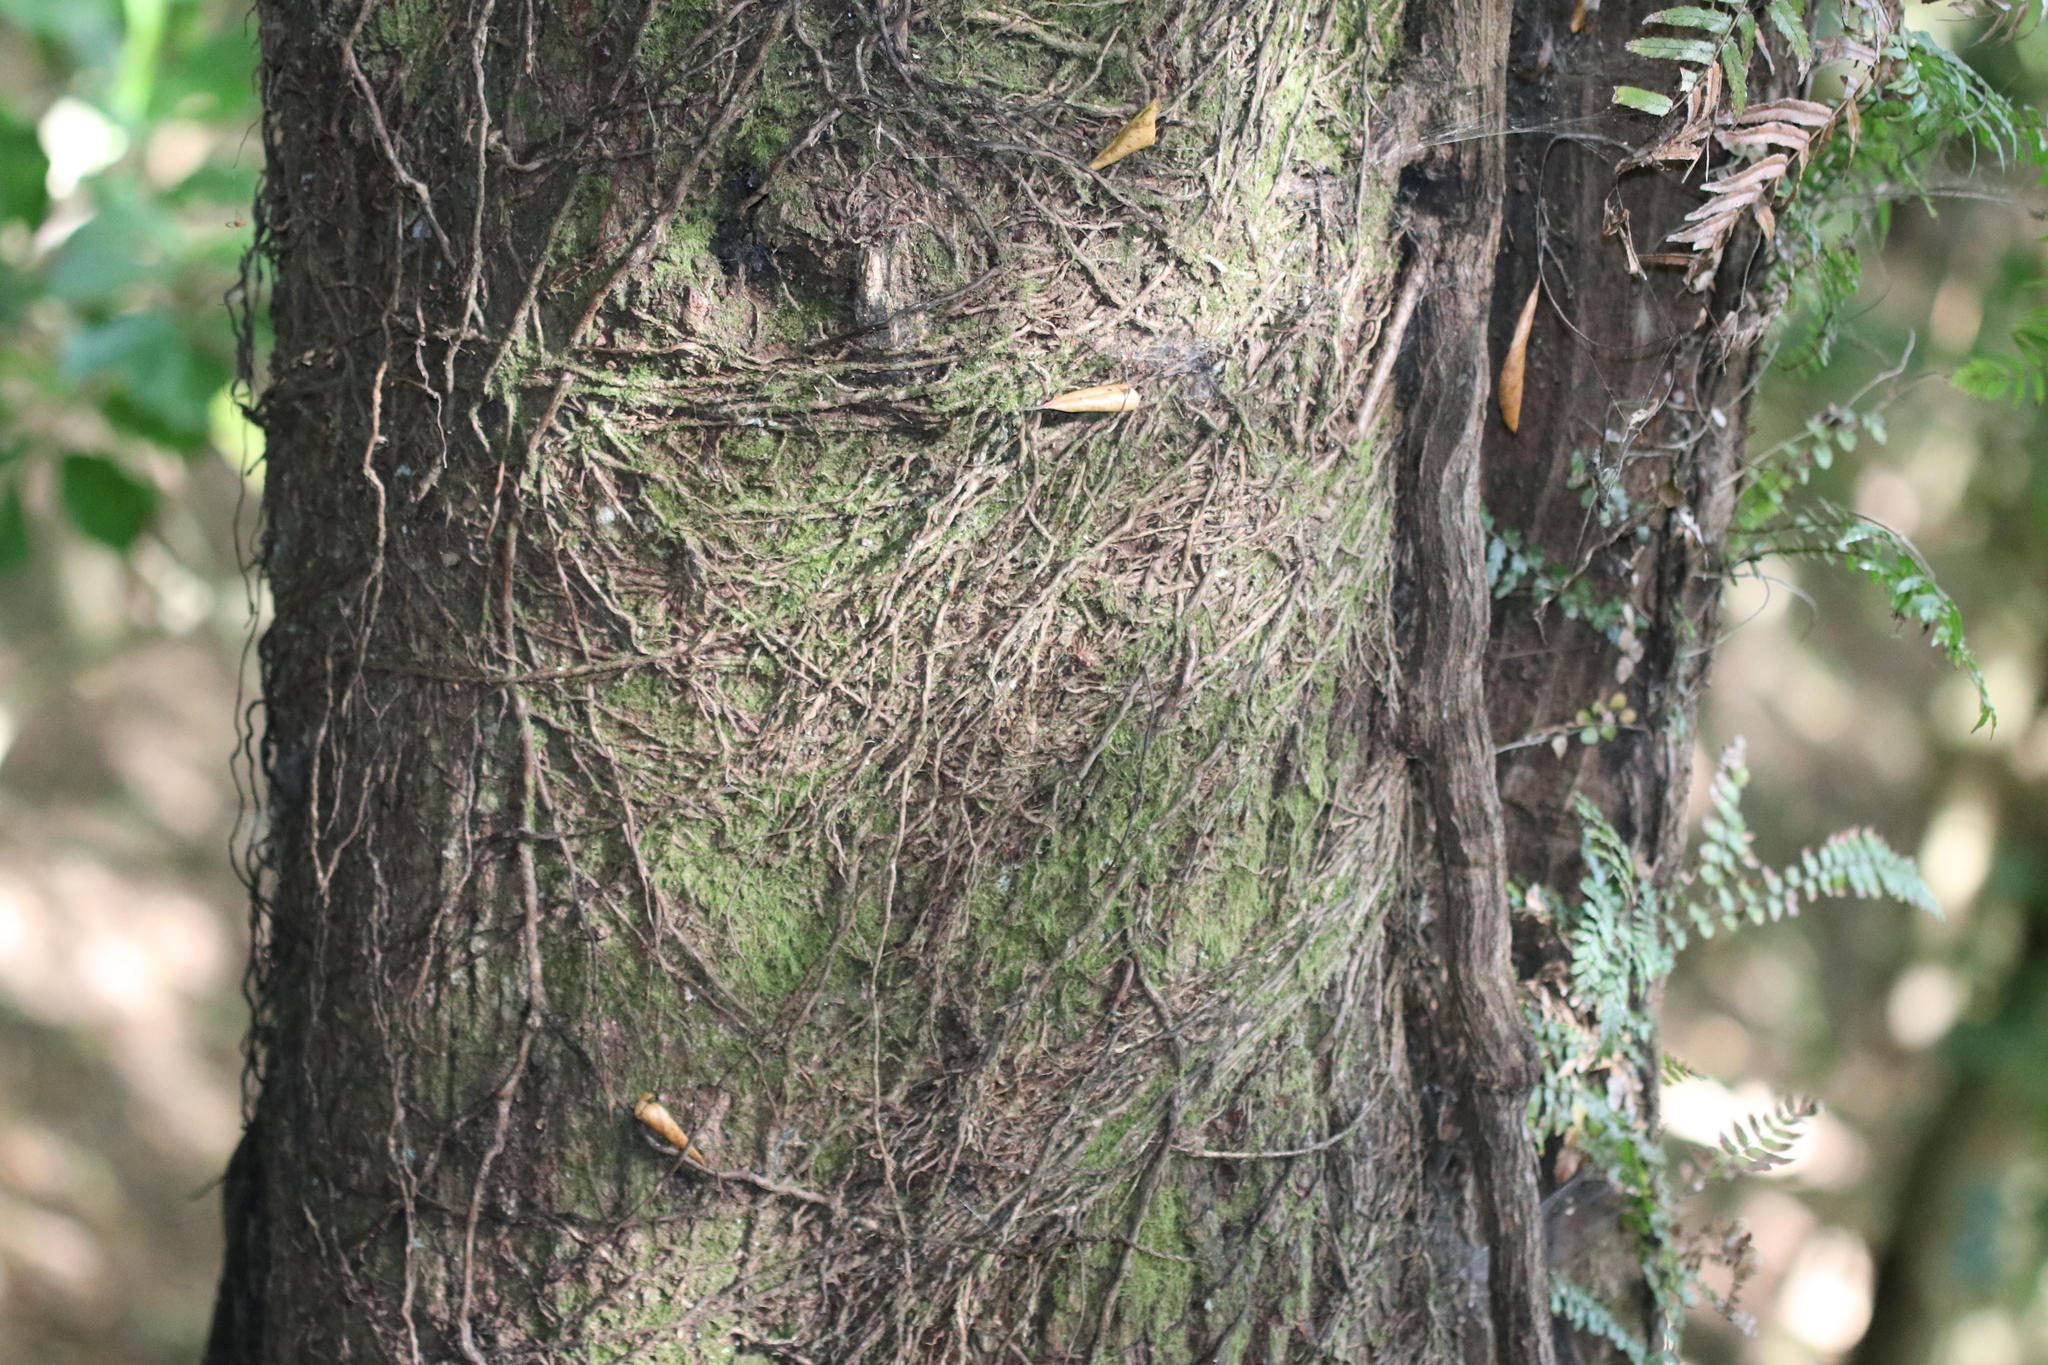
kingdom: Plantae
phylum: Tracheophyta
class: Magnoliopsida
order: Oxalidales
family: Elaeocarpaceae
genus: Elaeocarpus
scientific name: Elaeocarpus dentatus
